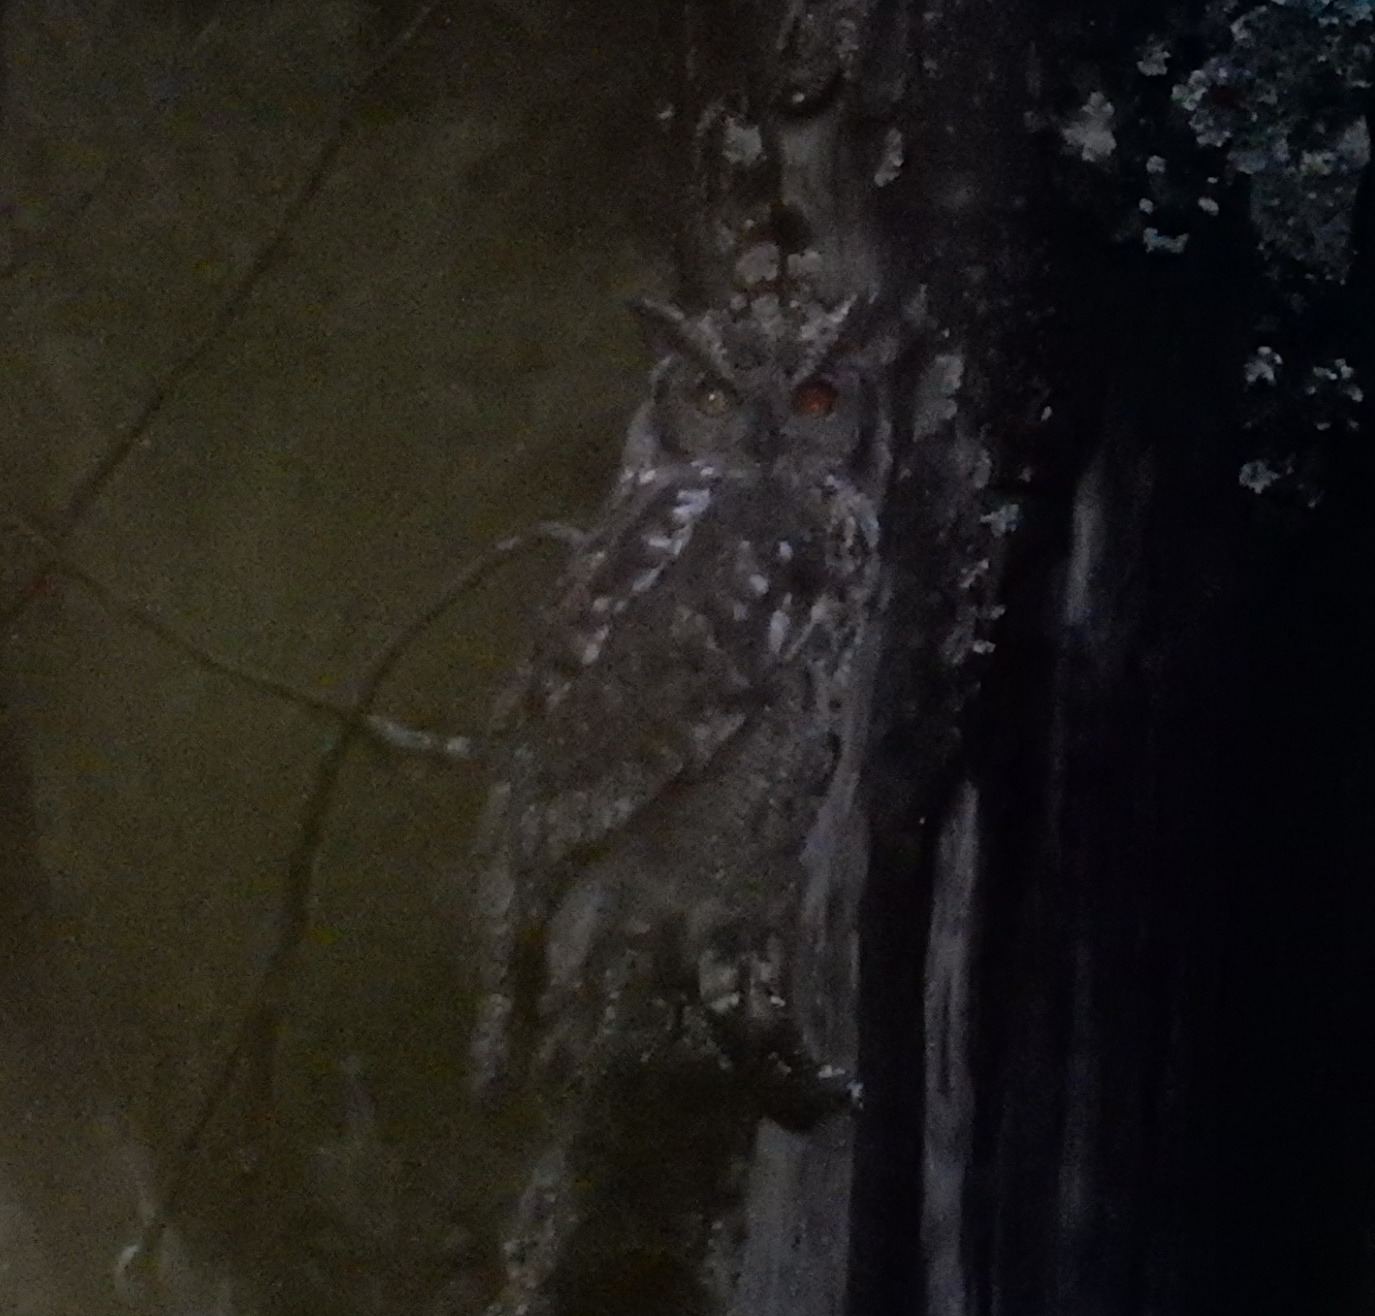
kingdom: Animalia
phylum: Chordata
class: Aves
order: Strigiformes
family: Strigidae
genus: Bubo
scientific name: Bubo africanus
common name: Spotted eagle-owl
